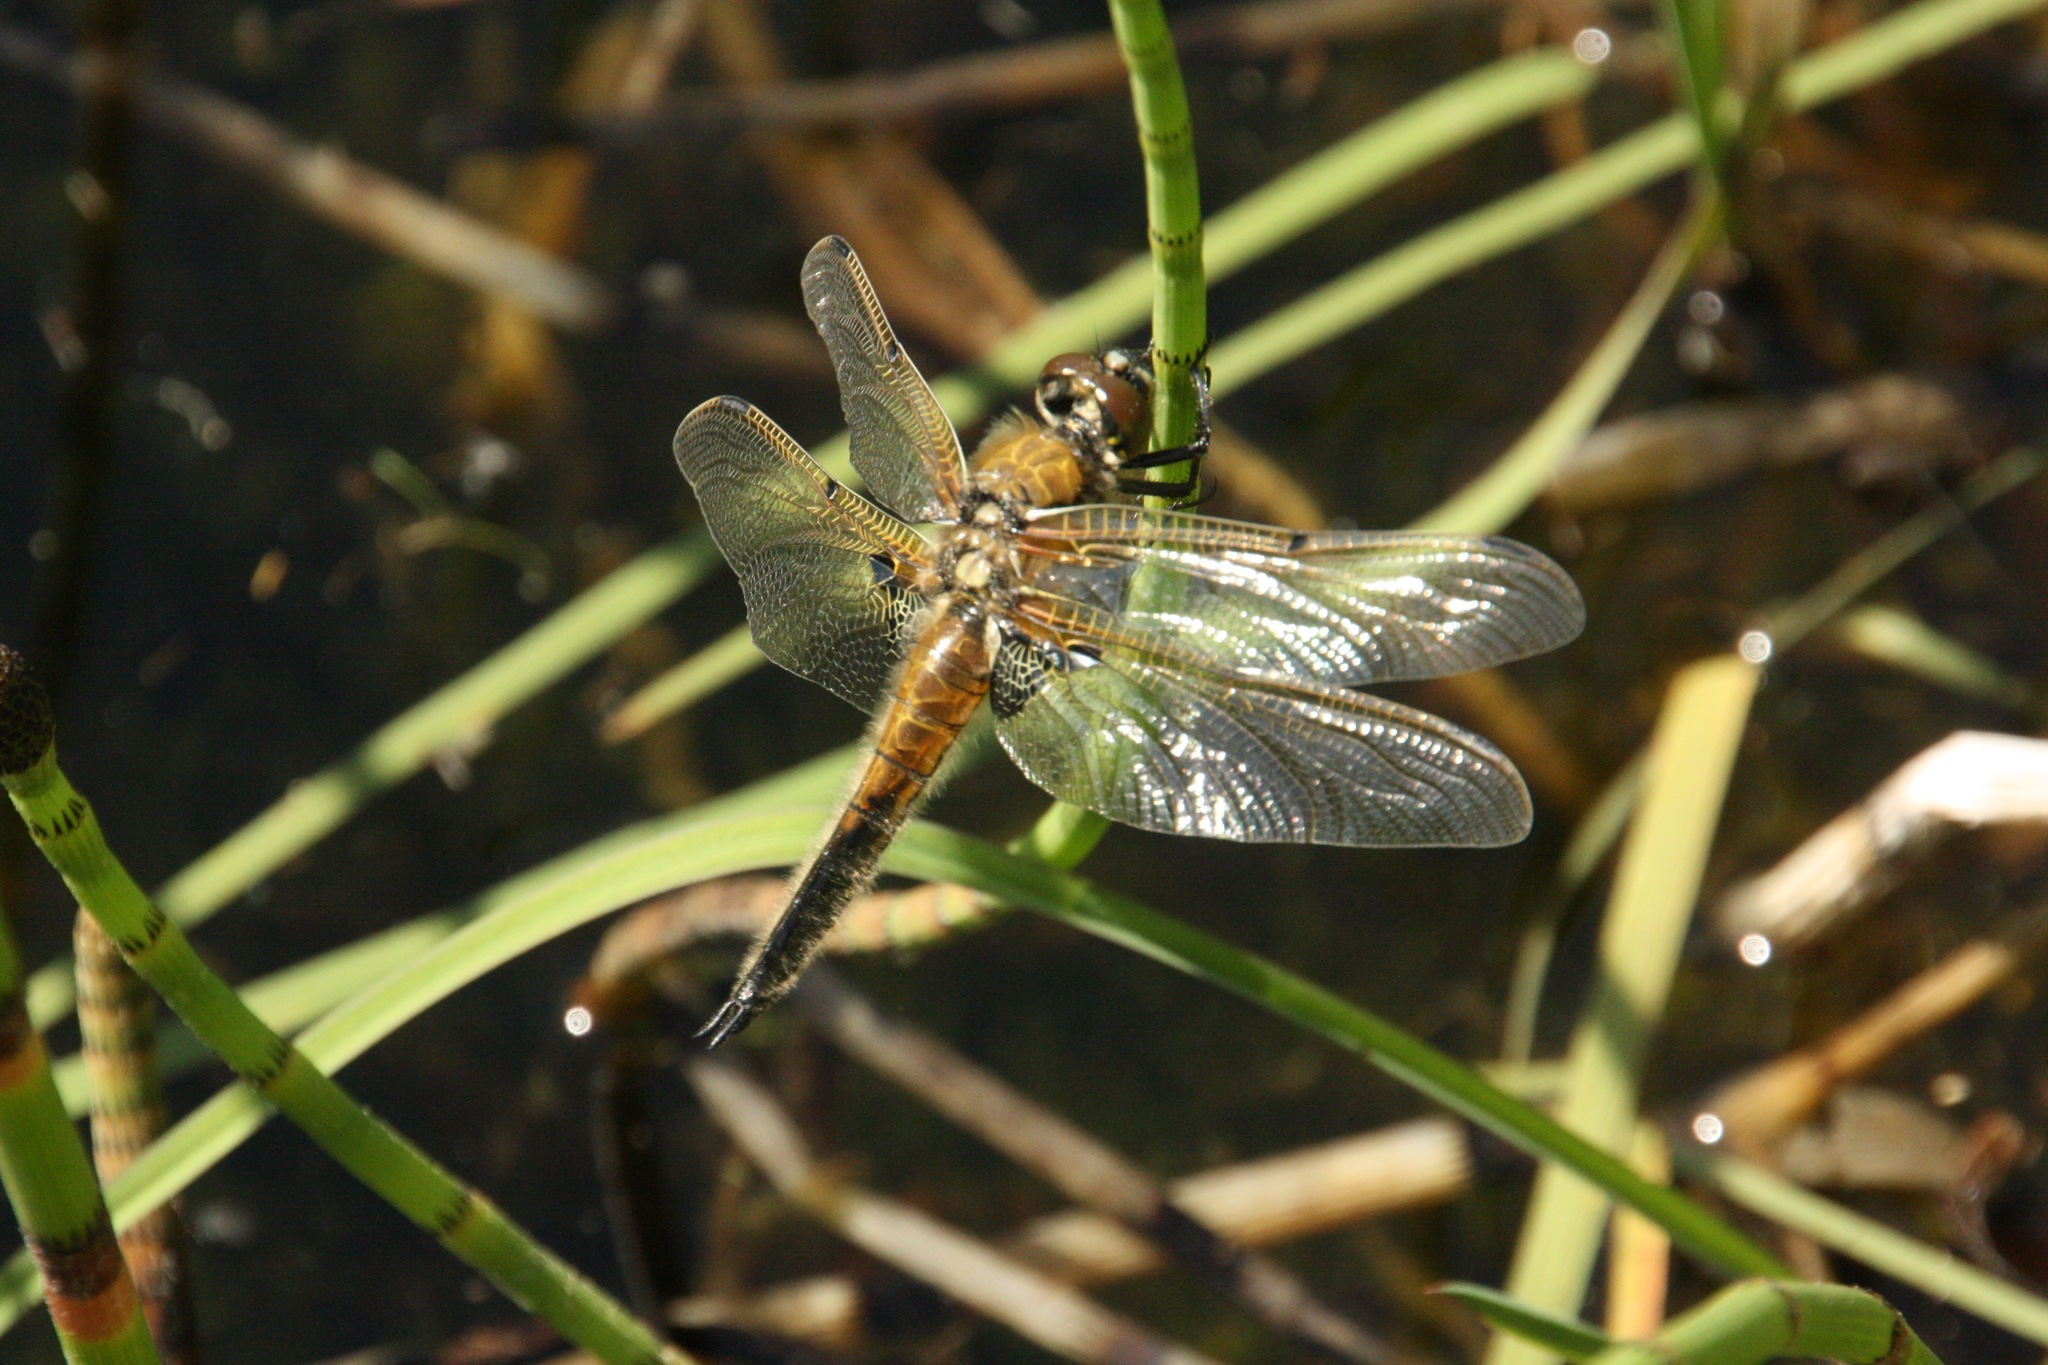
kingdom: Animalia
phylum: Arthropoda
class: Insecta
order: Odonata
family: Libellulidae
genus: Libellula
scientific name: Libellula quadrimaculata
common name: Four-spotted chaser
